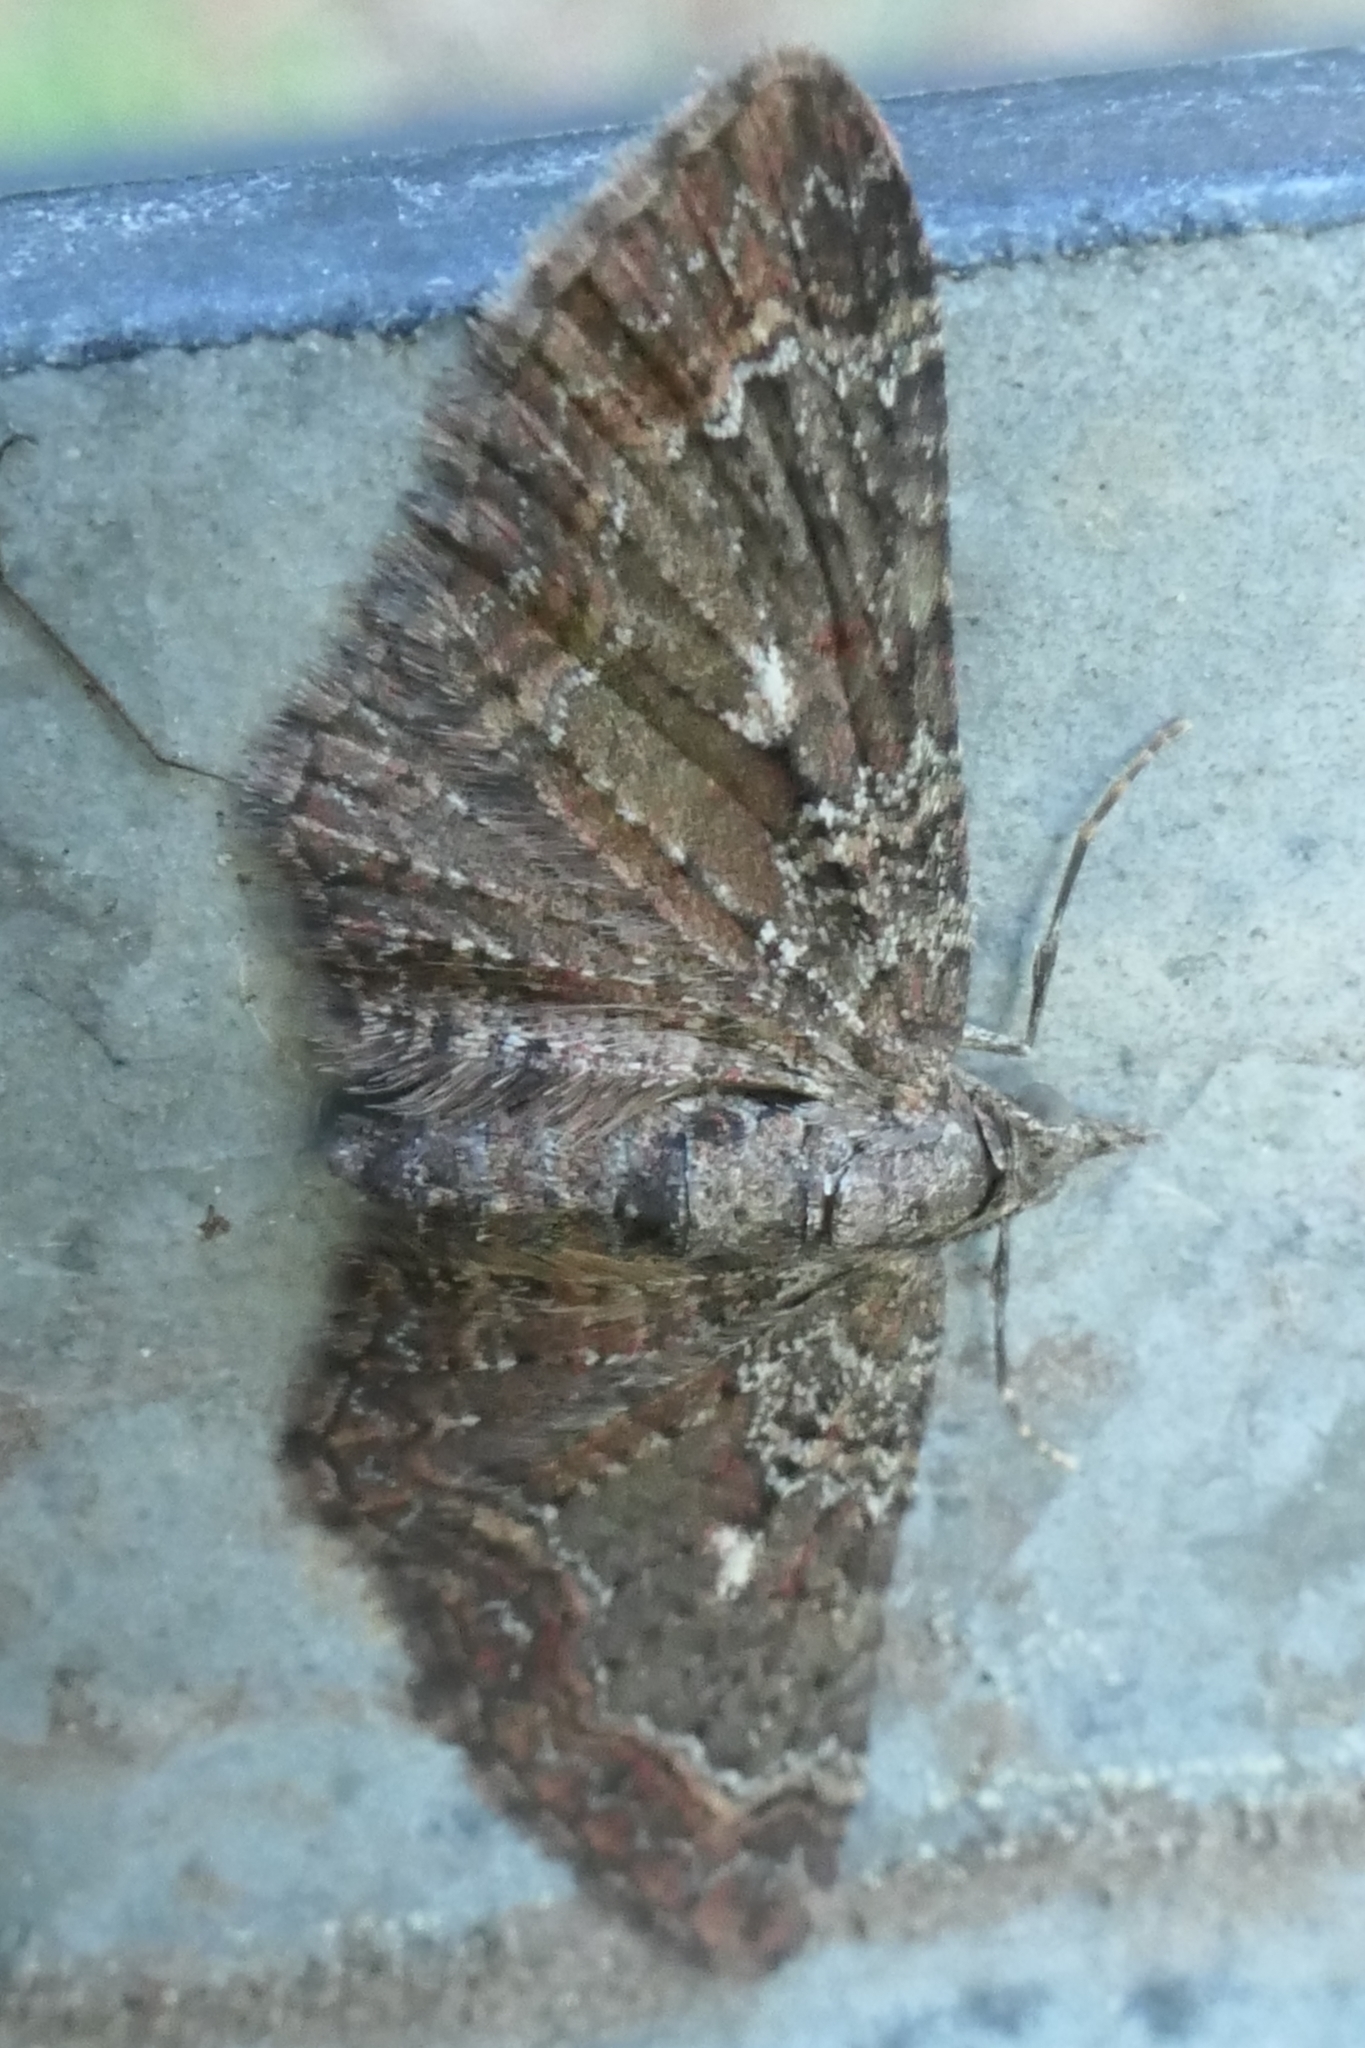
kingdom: Animalia
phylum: Arthropoda
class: Insecta
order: Lepidoptera
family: Geometridae
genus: Pasiphila
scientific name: Pasiphila lunata
